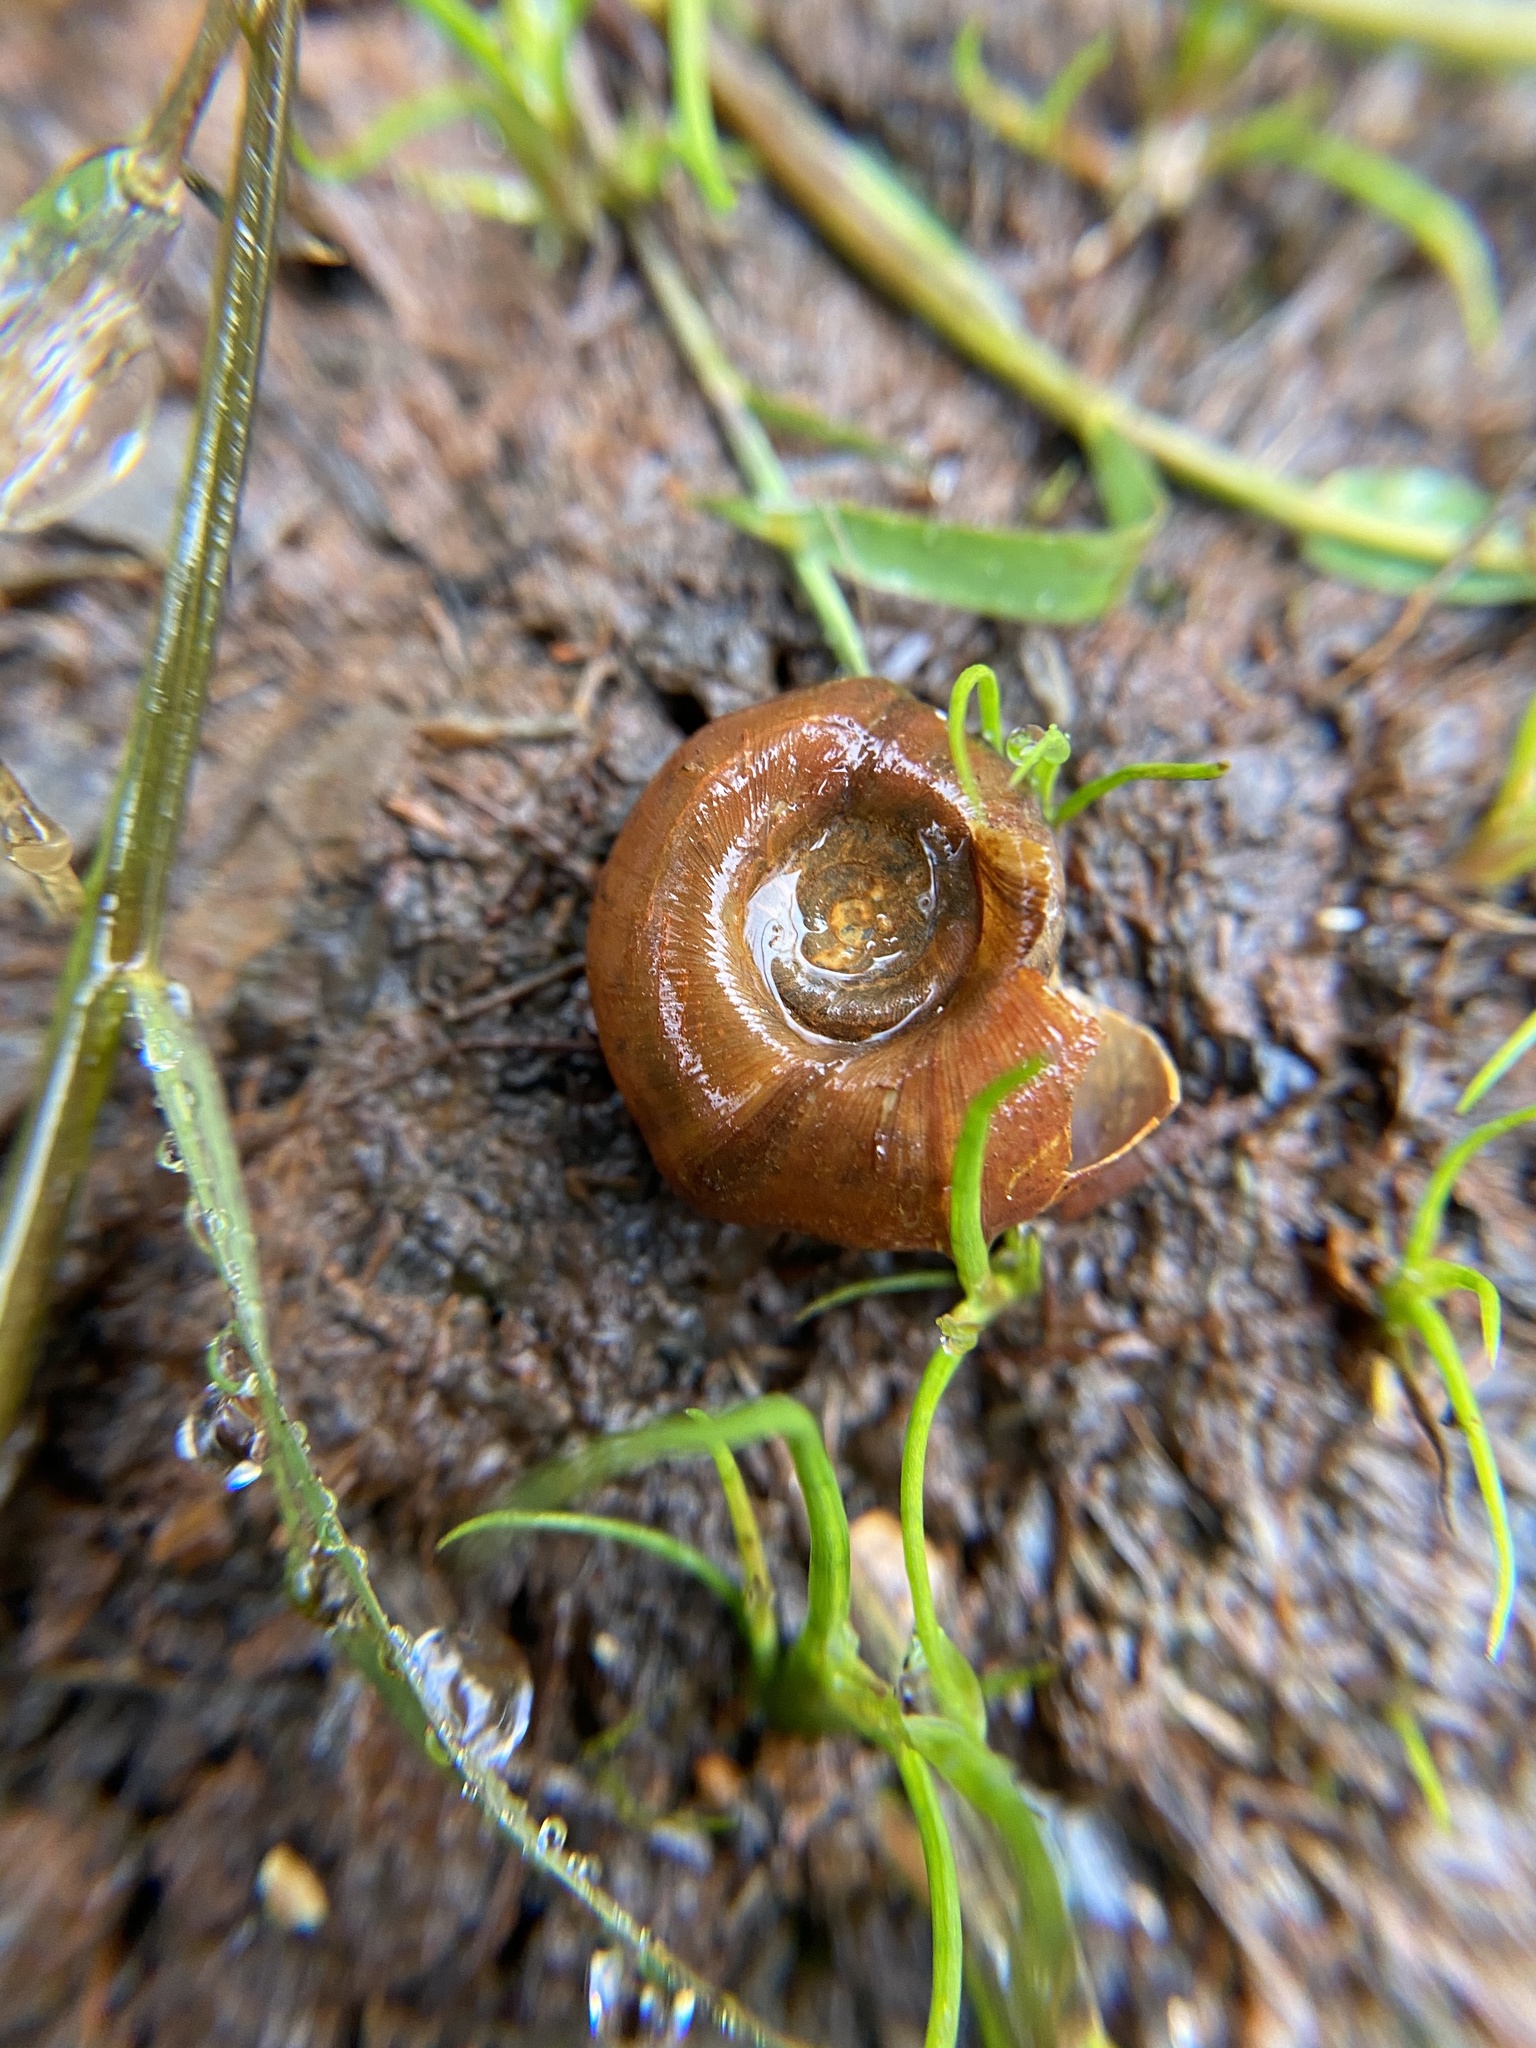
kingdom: Animalia
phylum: Mollusca
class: Gastropoda
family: Planorbidae
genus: Planorbella
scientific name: Planorbella trivolvis
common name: Marsh rams-horn
